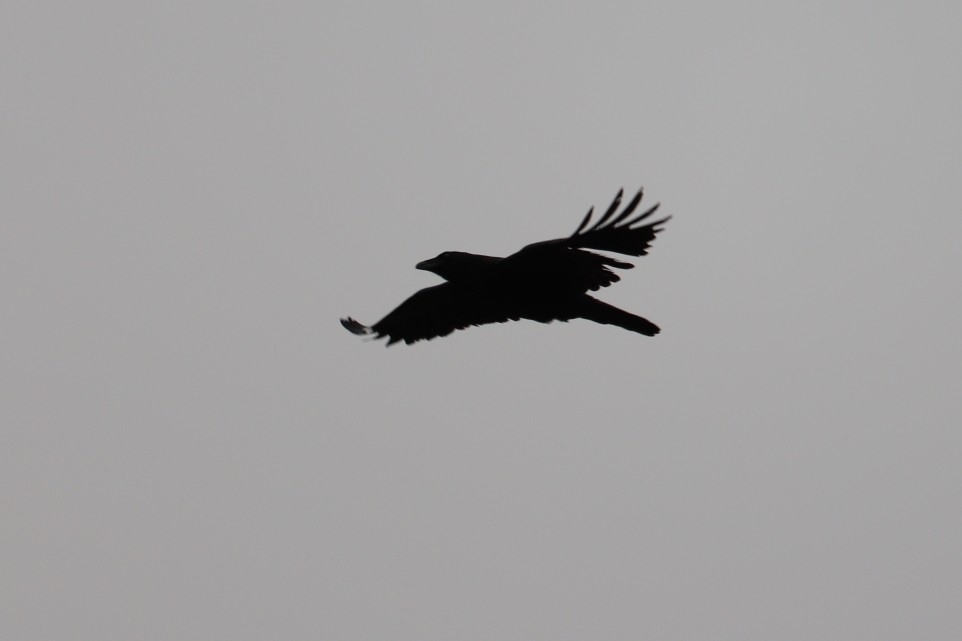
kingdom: Animalia
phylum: Chordata
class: Aves
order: Passeriformes
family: Corvidae
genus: Corvus
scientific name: Corvus corax
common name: Common raven
